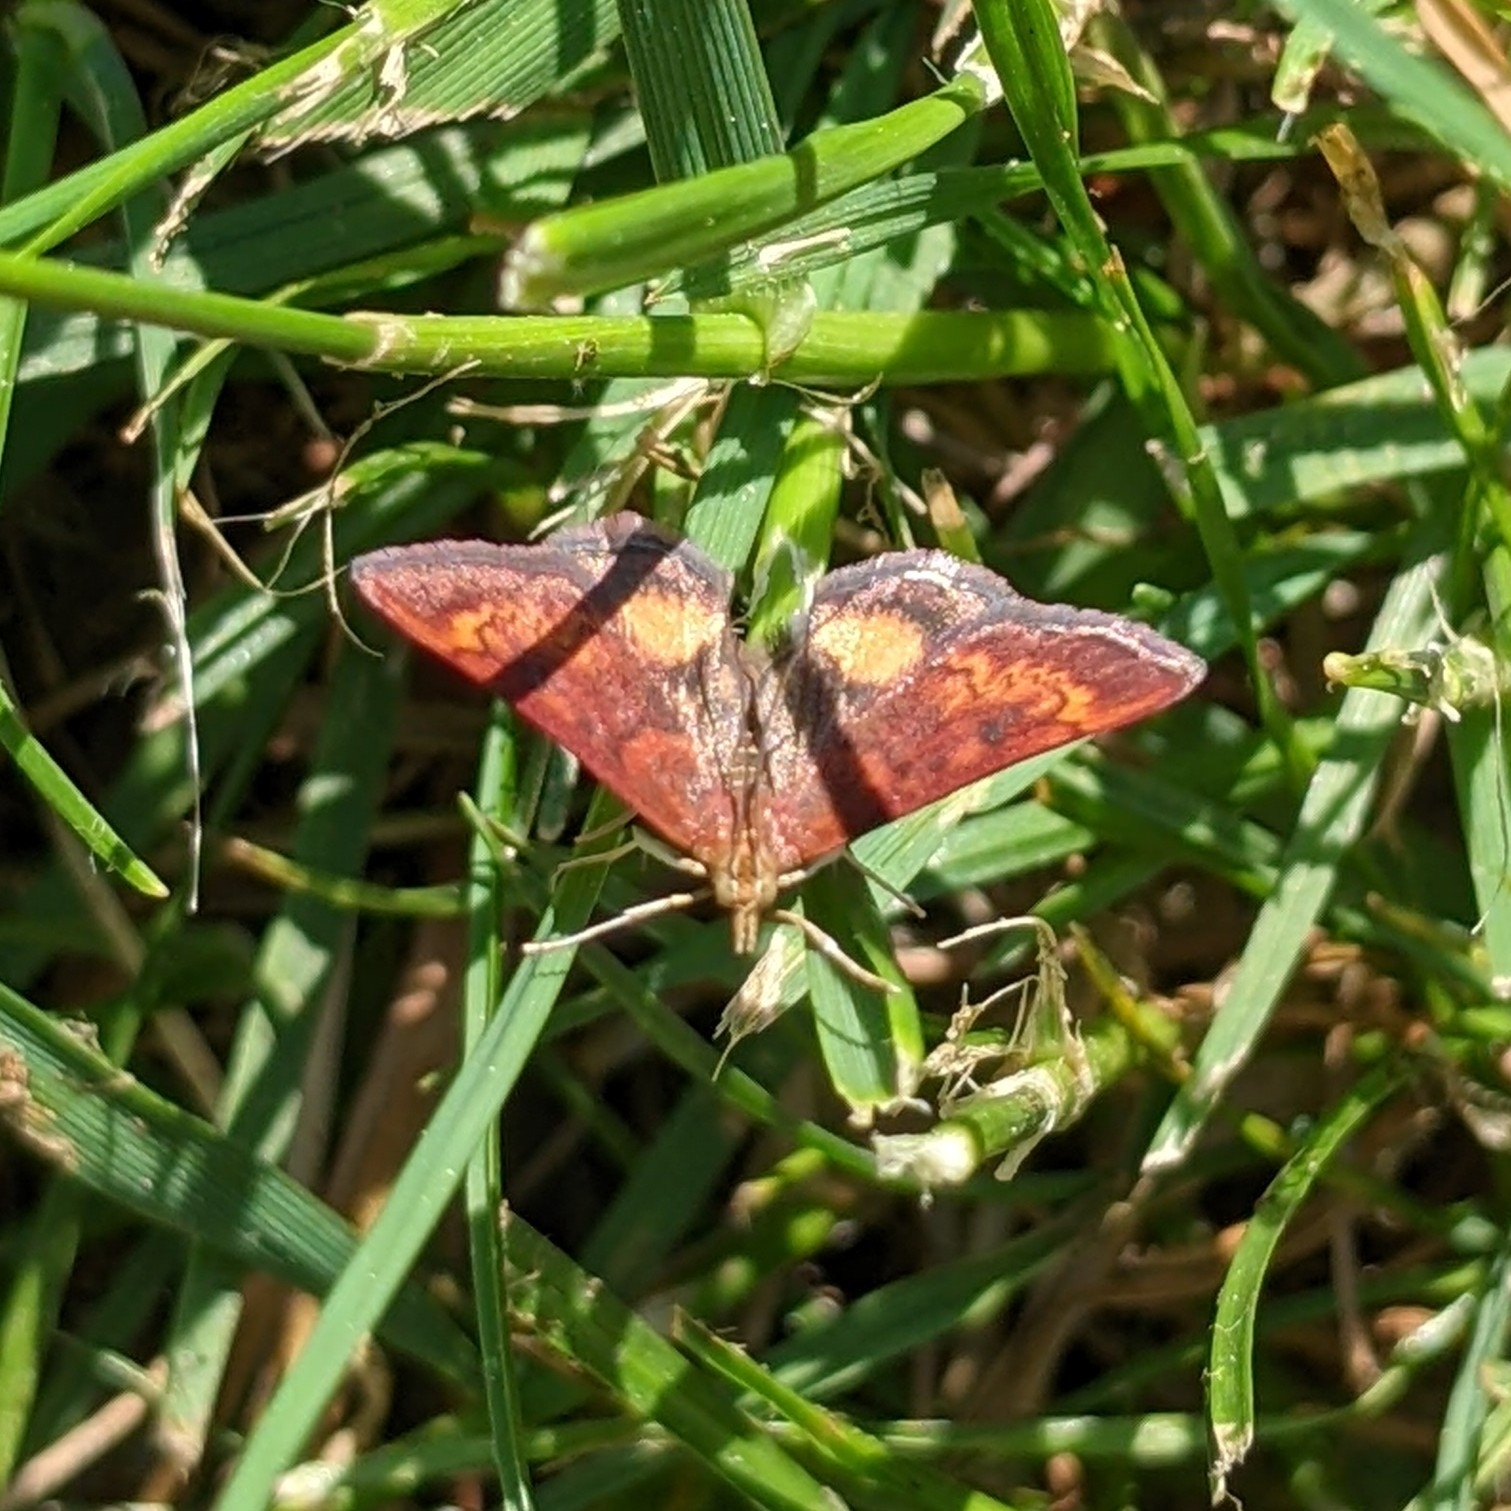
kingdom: Animalia
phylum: Arthropoda
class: Insecta
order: Lepidoptera
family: Crambidae
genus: Pyrausta
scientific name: Pyrausta californicalis
